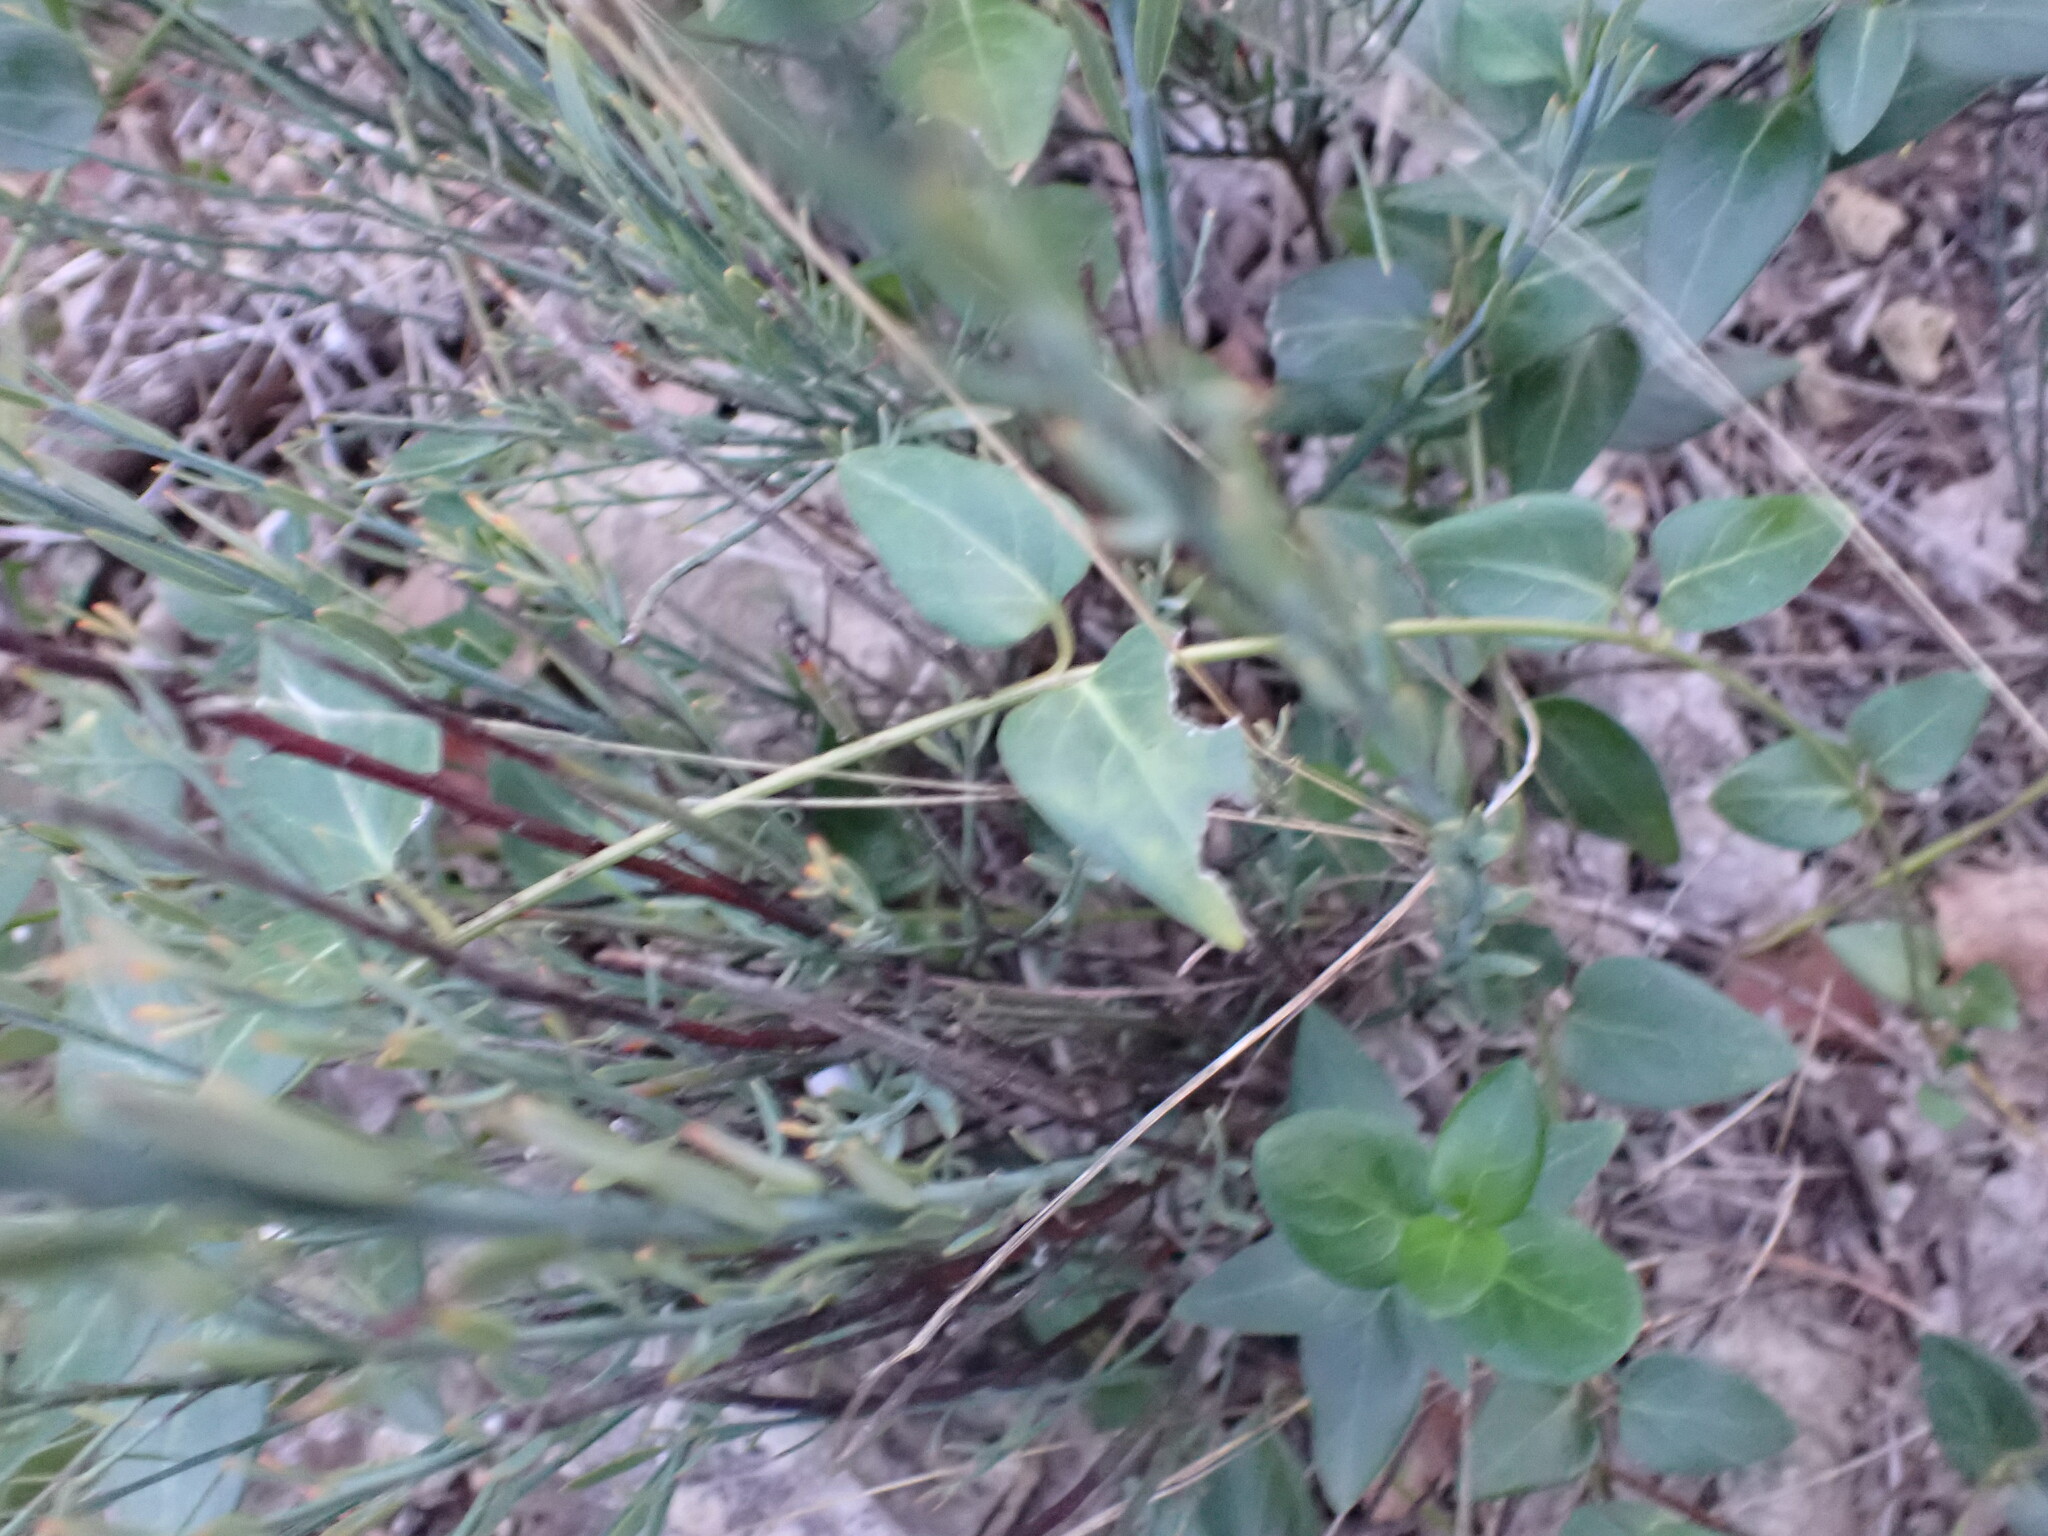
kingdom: Plantae
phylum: Tracheophyta
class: Magnoliopsida
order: Gentianales
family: Apocynaceae
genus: Vinca
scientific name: Vinca major
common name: Greater periwinkle
